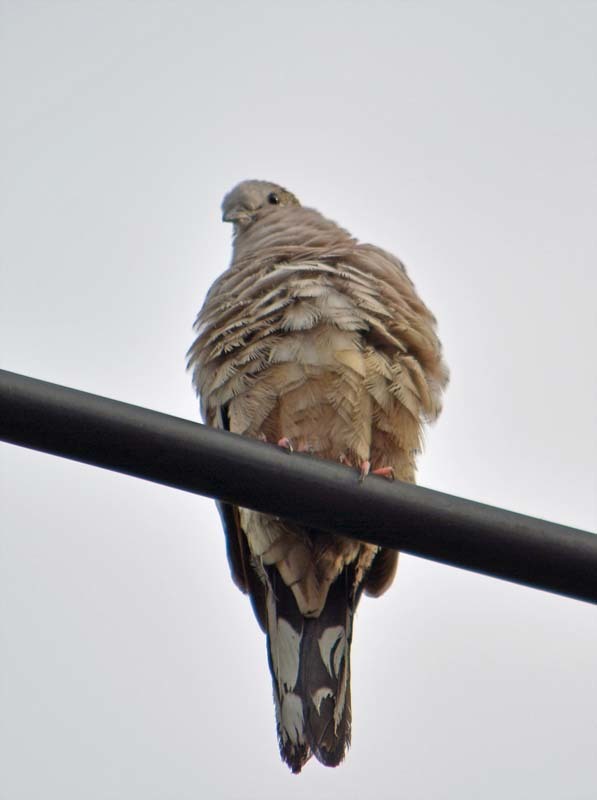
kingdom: Animalia
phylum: Chordata
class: Aves
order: Columbiformes
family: Columbidae
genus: Columbina
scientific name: Columbina inca
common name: Inca dove
